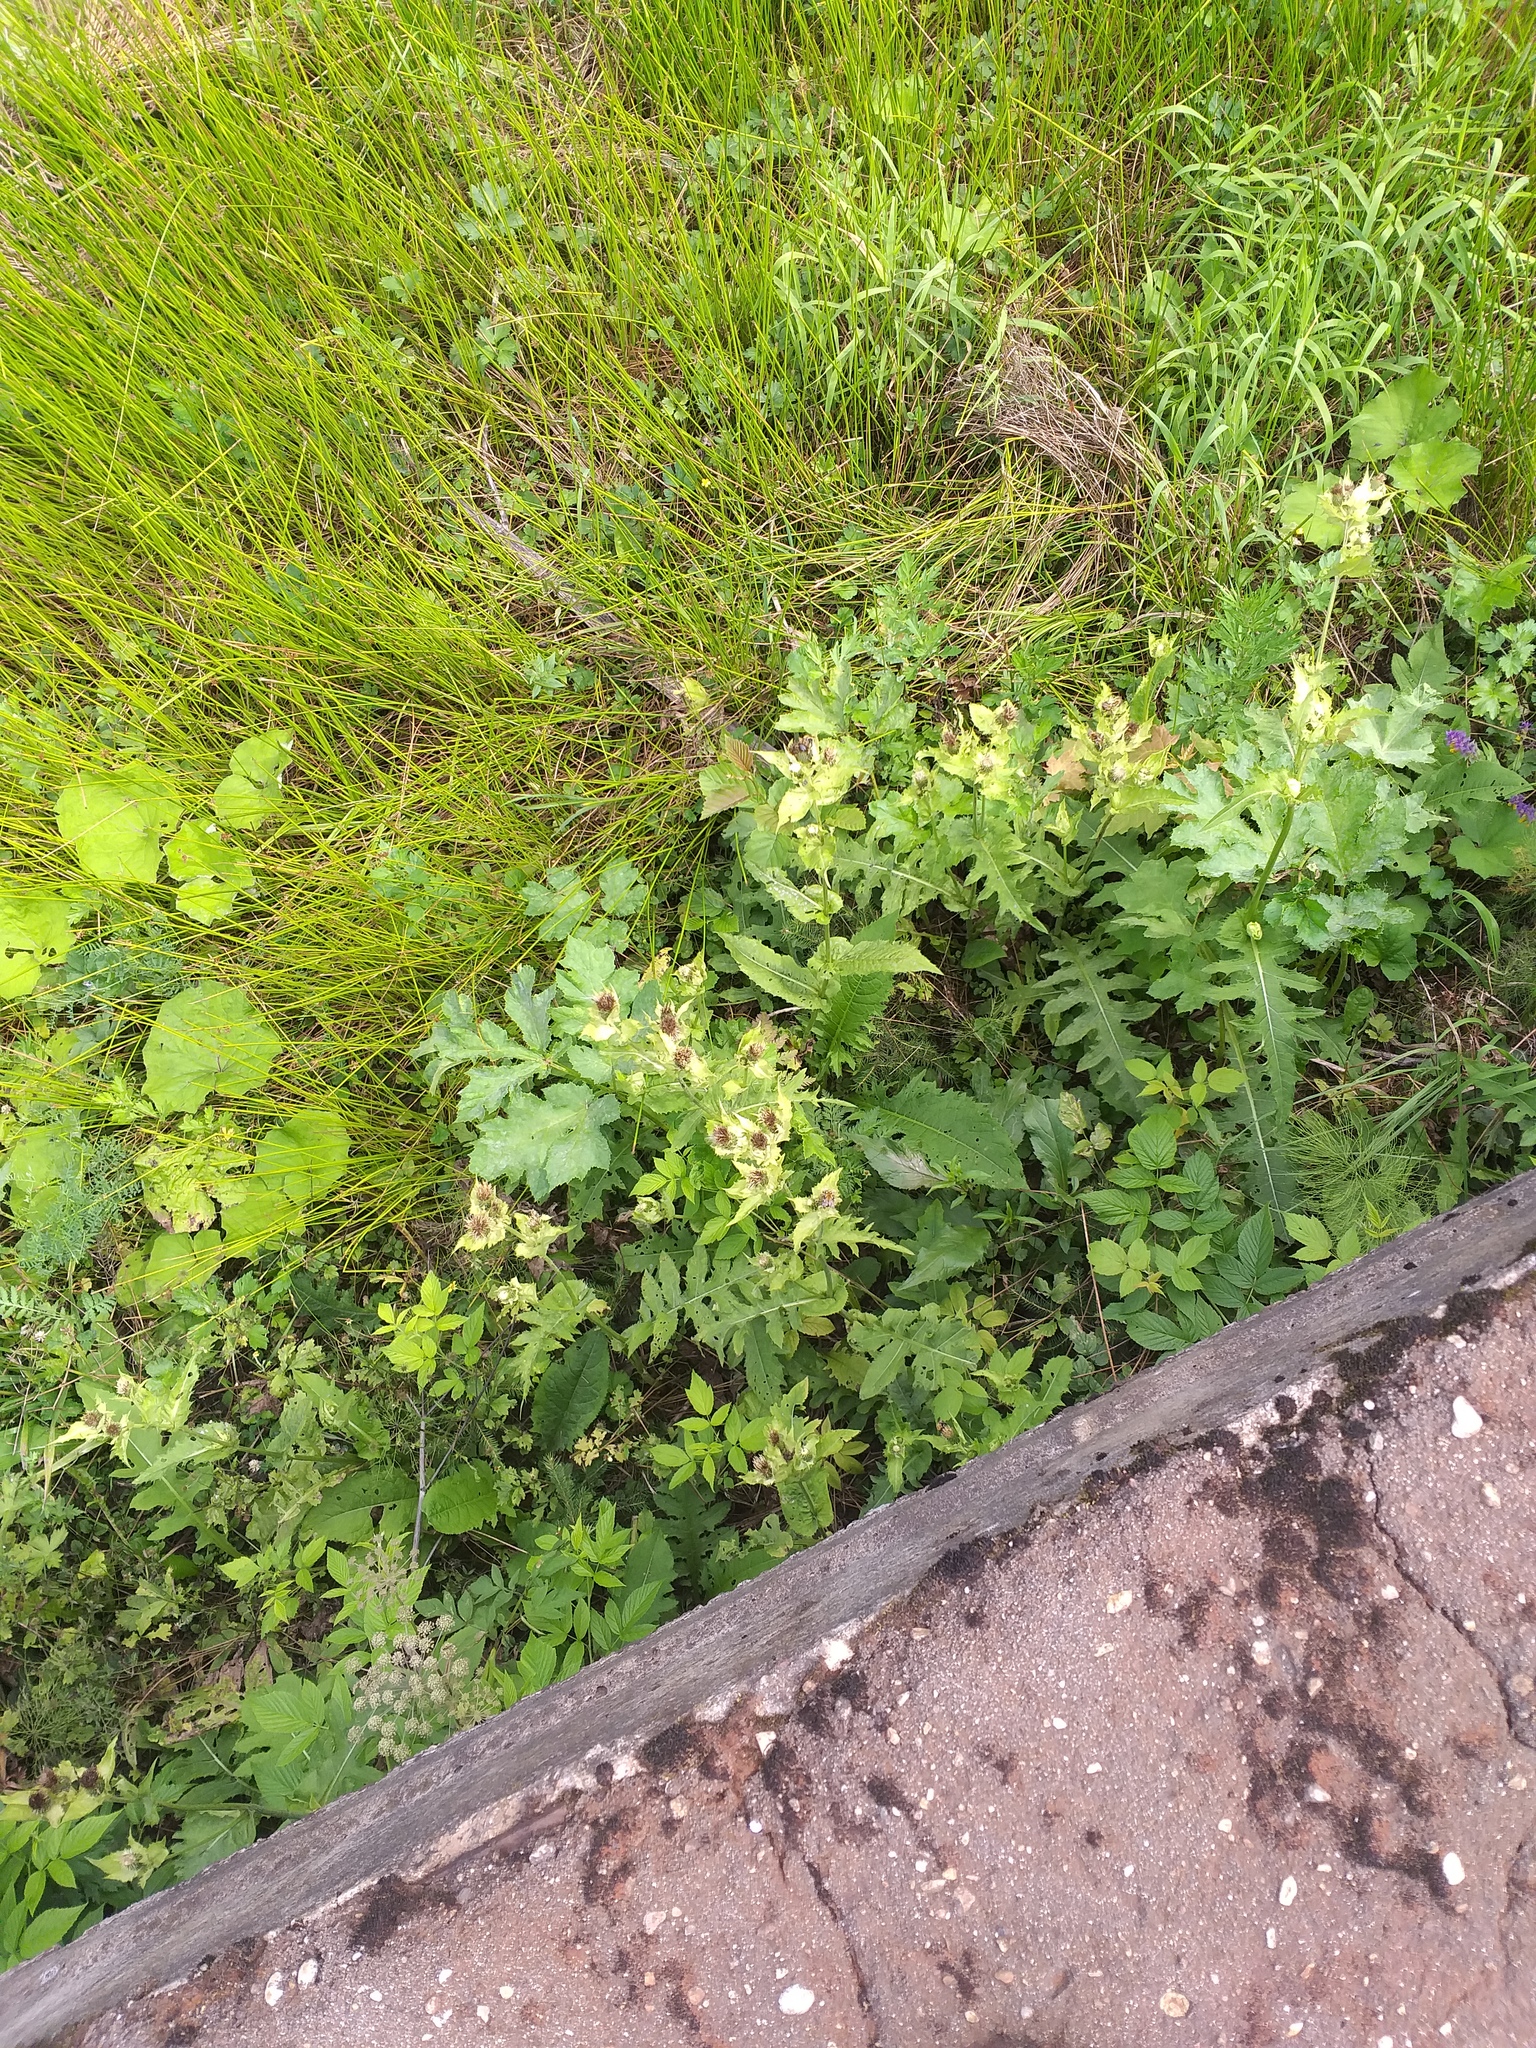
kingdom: Plantae
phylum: Tracheophyta
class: Magnoliopsida
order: Asterales
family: Asteraceae
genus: Cirsium
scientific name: Cirsium oleraceum
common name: Cabbage thistle
